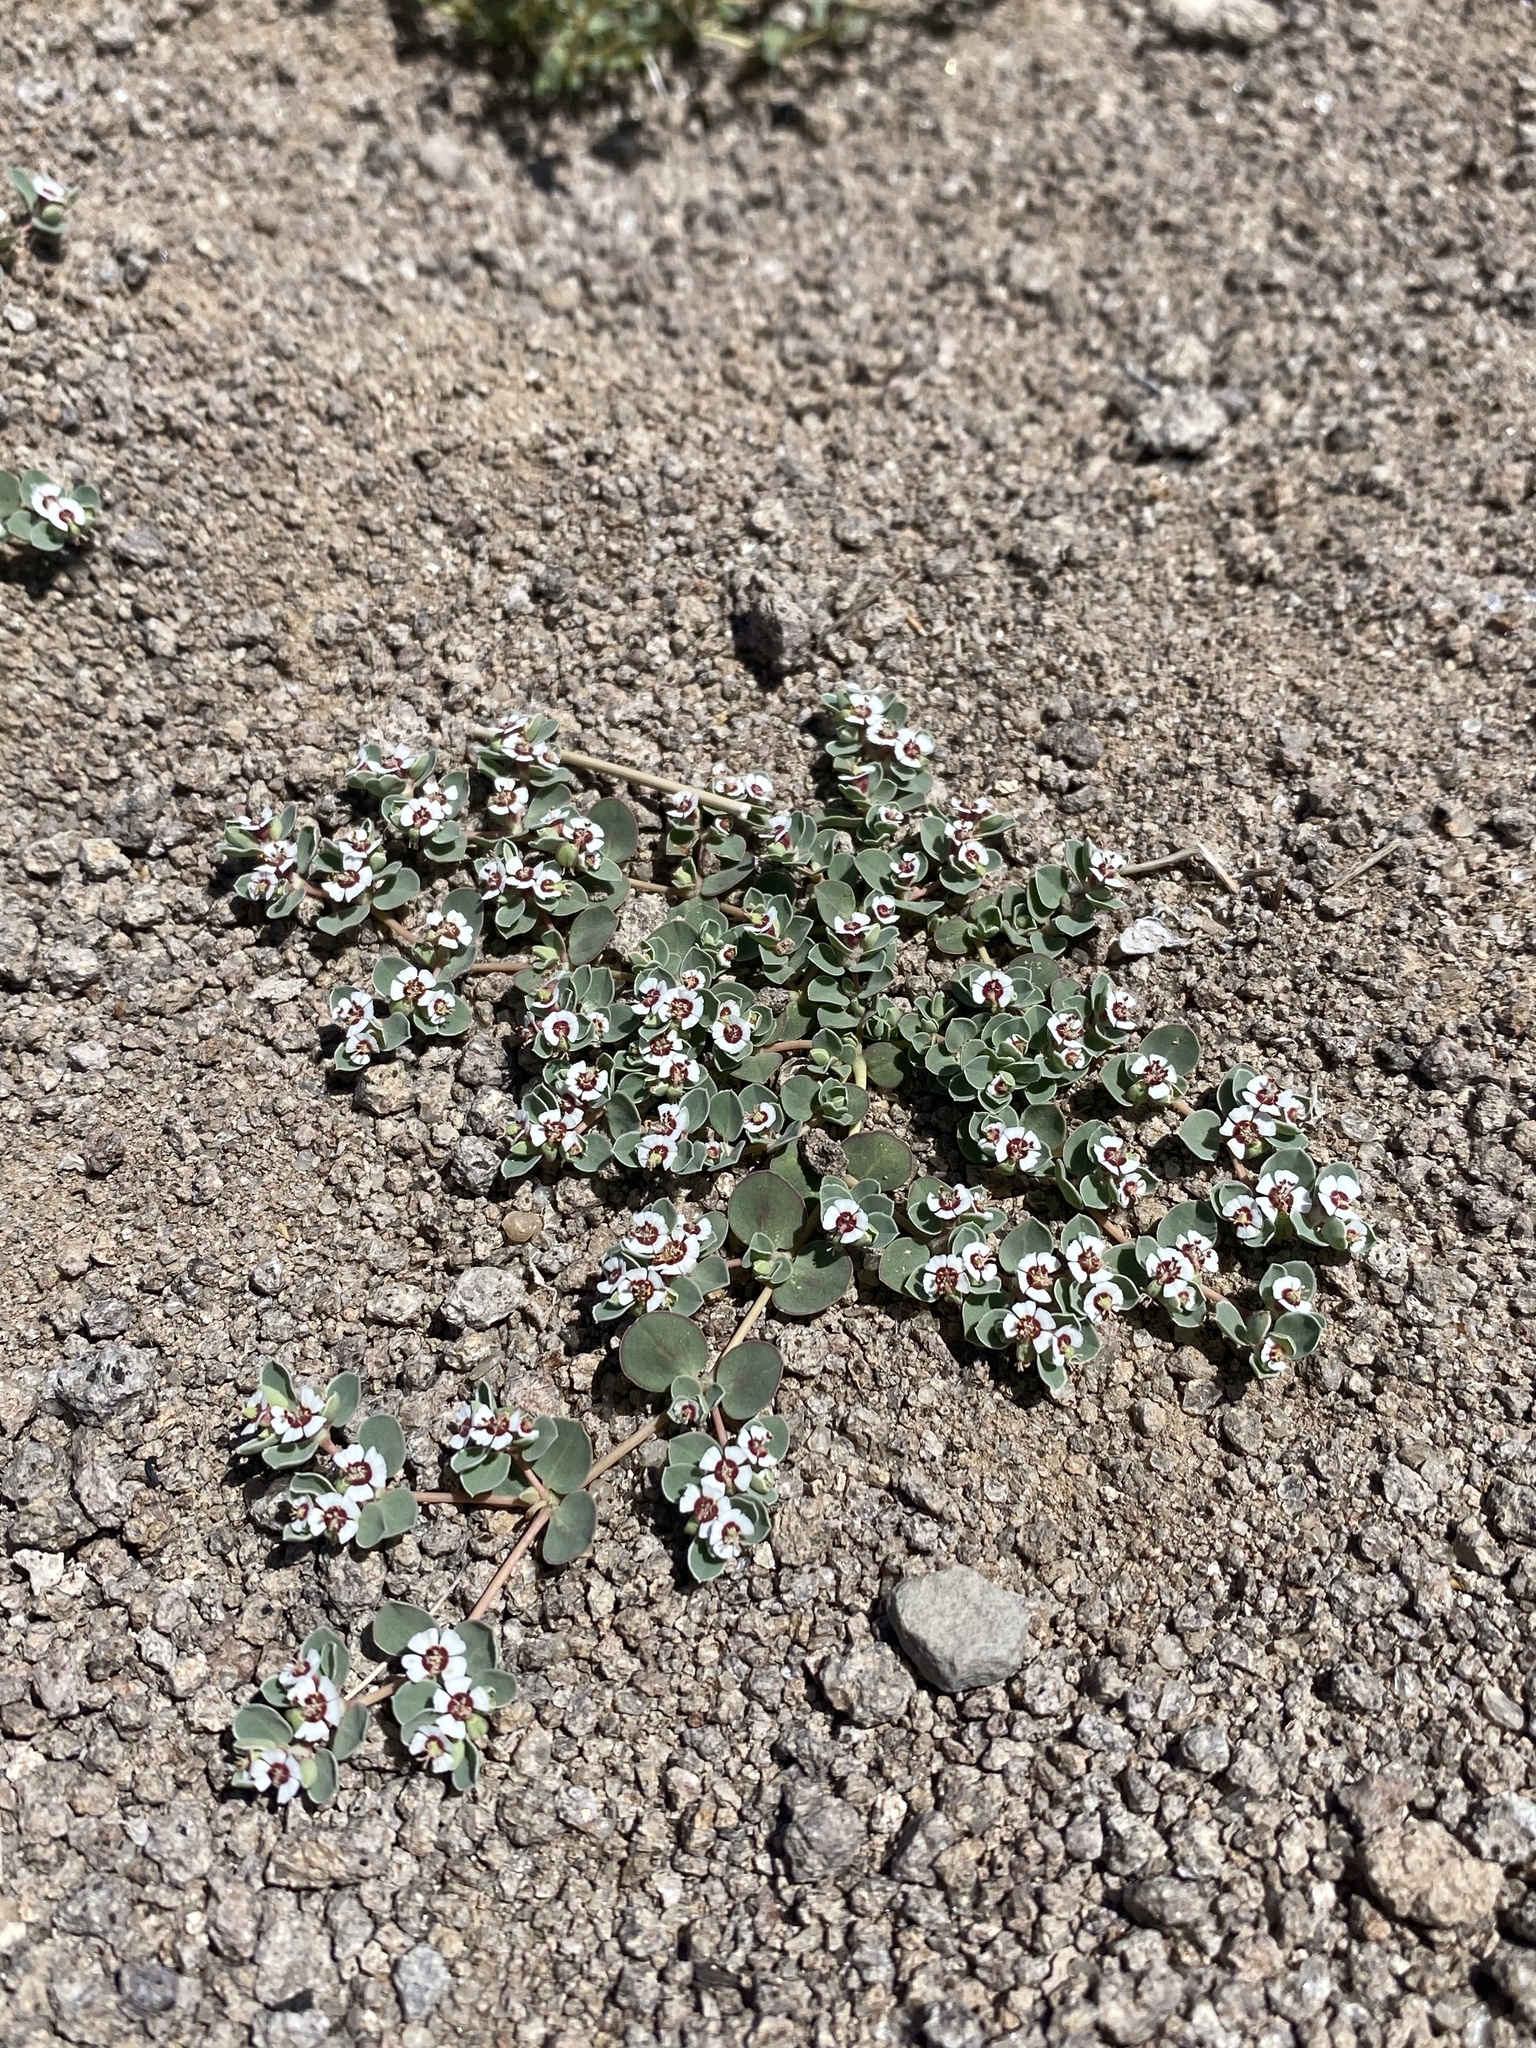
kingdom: Plantae
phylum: Tracheophyta
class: Magnoliopsida
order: Malpighiales
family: Euphorbiaceae
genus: Euphorbia
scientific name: Euphorbia albomarginata
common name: Whitemargin sandmat
